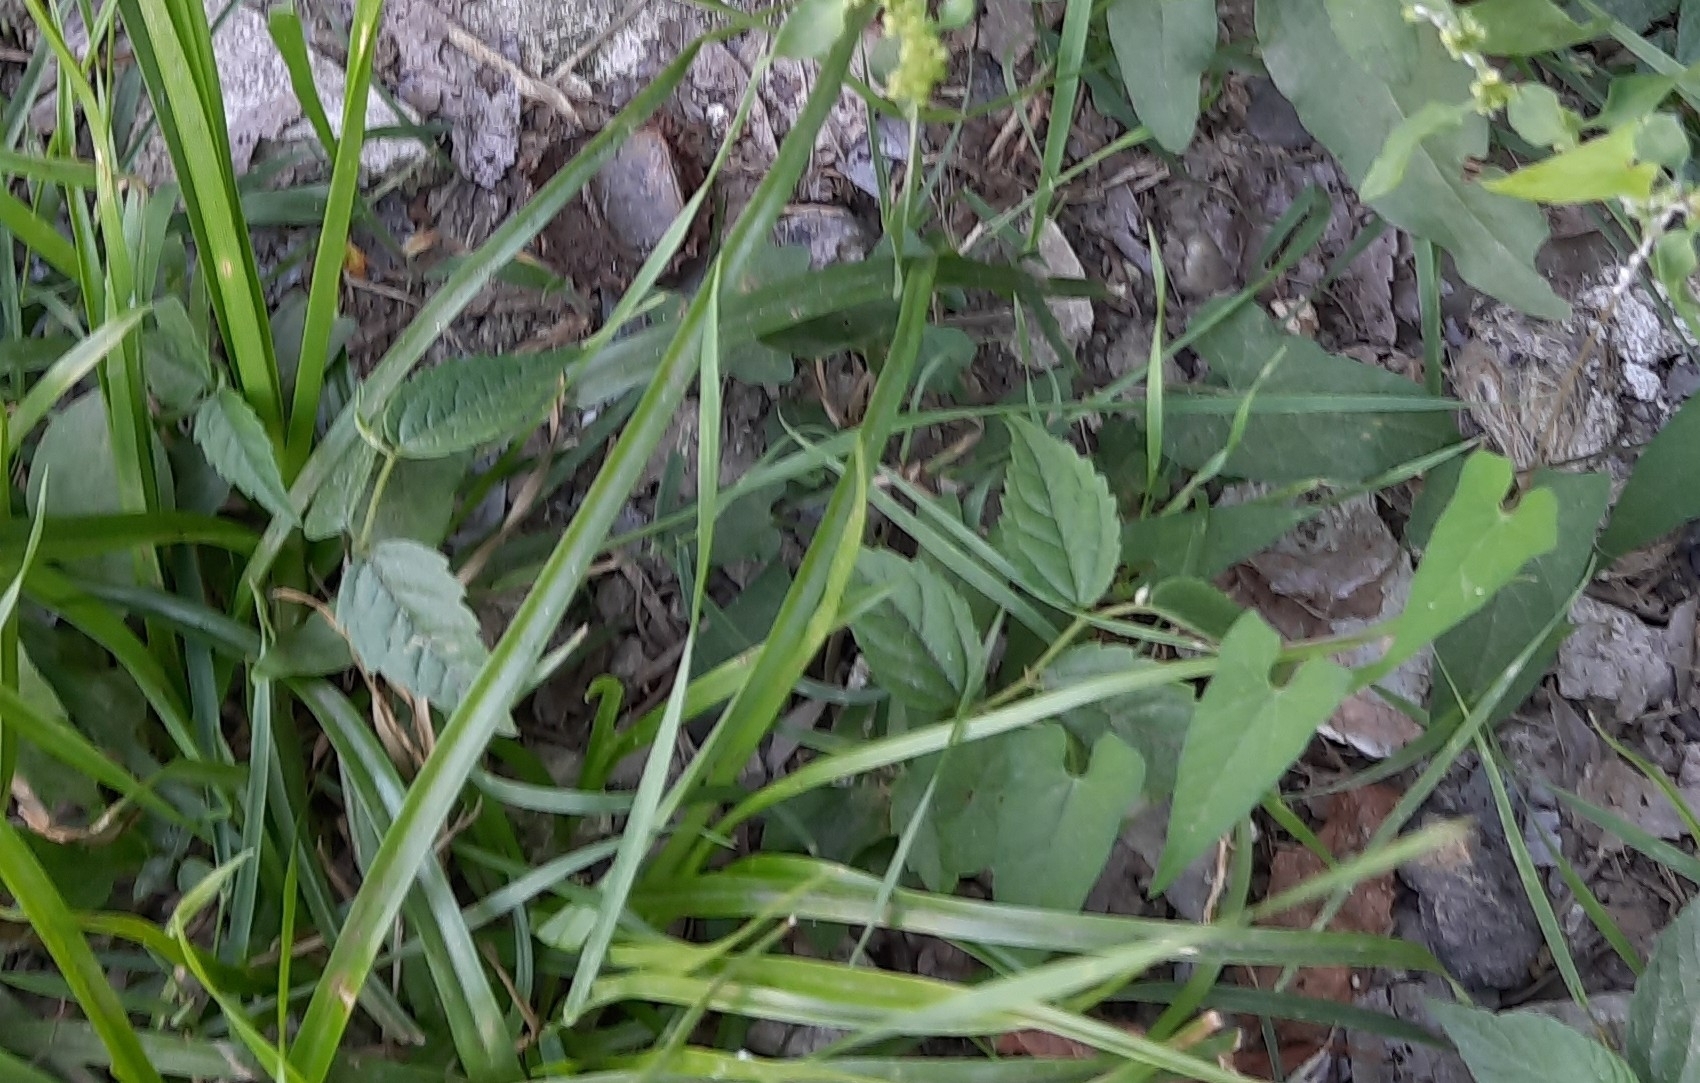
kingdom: Plantae
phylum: Tracheophyta
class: Magnoliopsida
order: Solanales
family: Convolvulaceae
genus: Calystegia
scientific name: Calystegia silvatica
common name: Large bindweed
